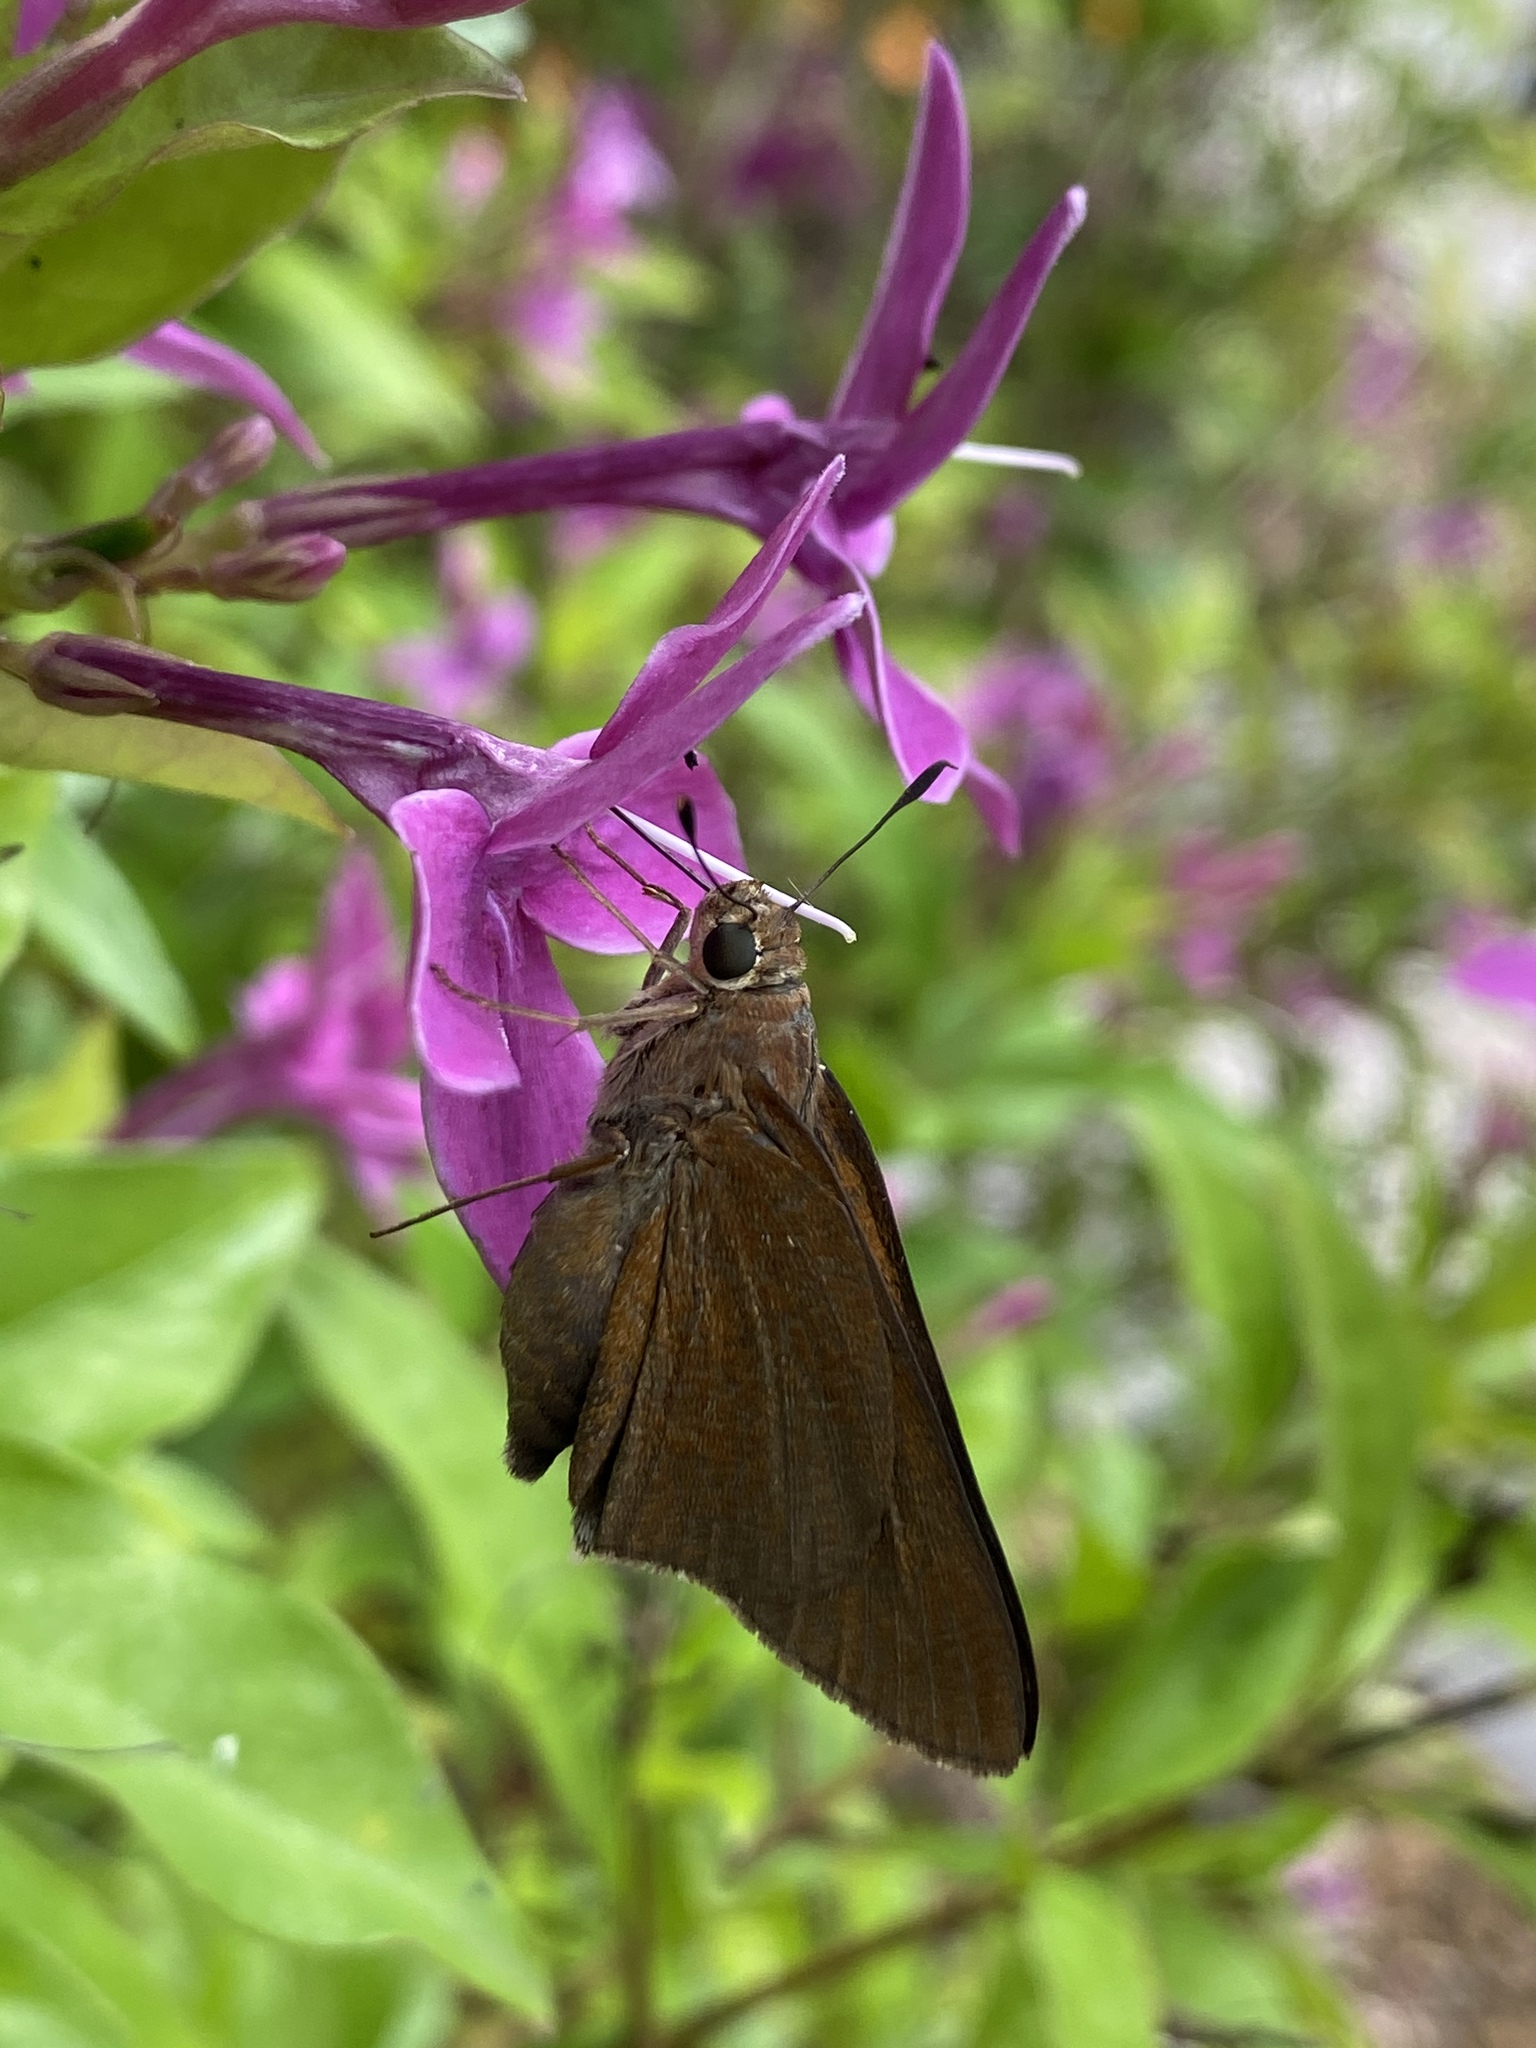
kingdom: Animalia
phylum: Arthropoda
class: Insecta
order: Lepidoptera
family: Hesperiidae
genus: Asbolis
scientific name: Asbolis capucinus
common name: Monk skipper
